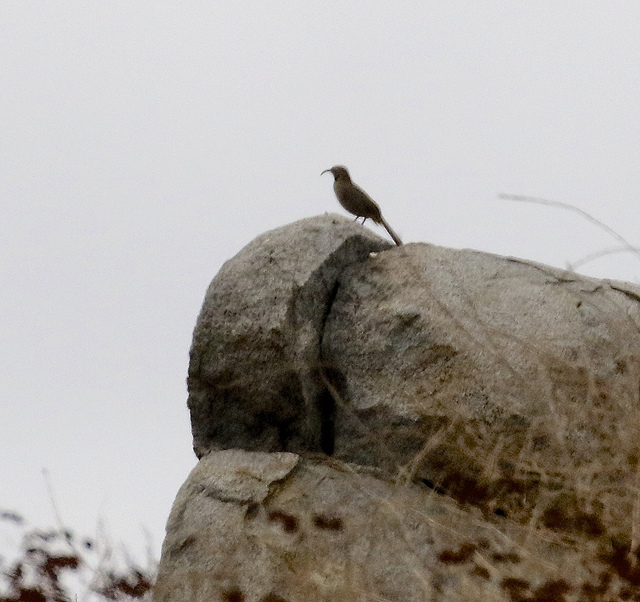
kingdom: Animalia
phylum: Chordata
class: Aves
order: Passeriformes
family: Mimidae
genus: Toxostoma
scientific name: Toxostoma redivivum
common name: California thrasher
